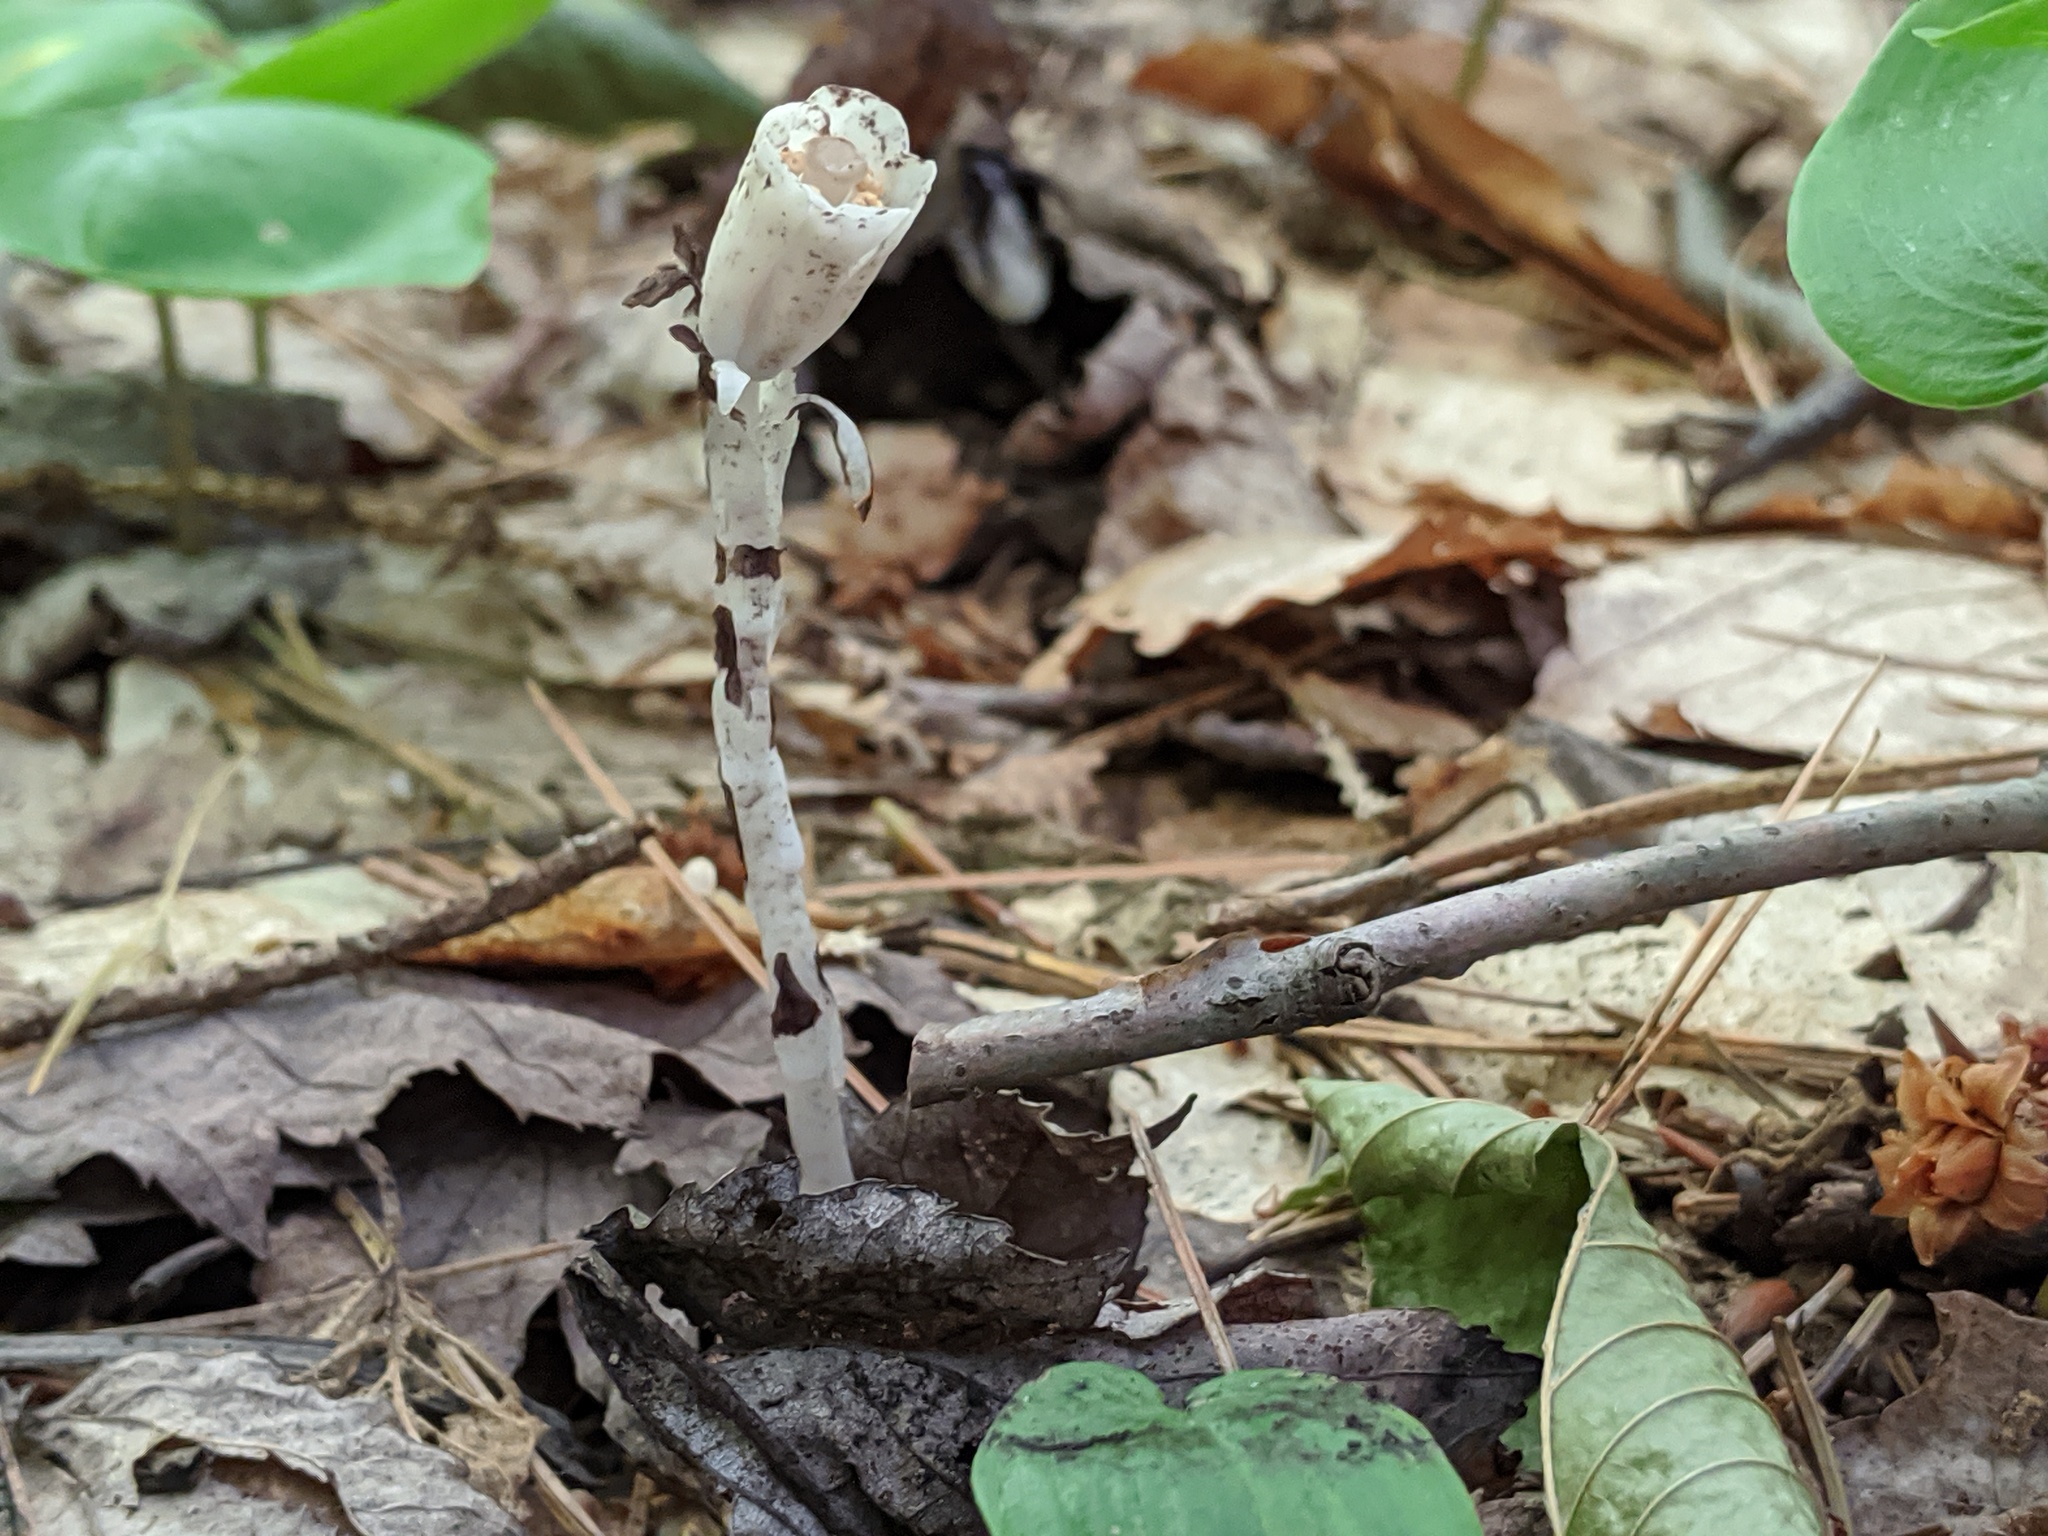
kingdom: Plantae
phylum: Tracheophyta
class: Magnoliopsida
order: Ericales
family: Ericaceae
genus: Monotropa
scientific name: Monotropa uniflora
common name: Convulsion root
